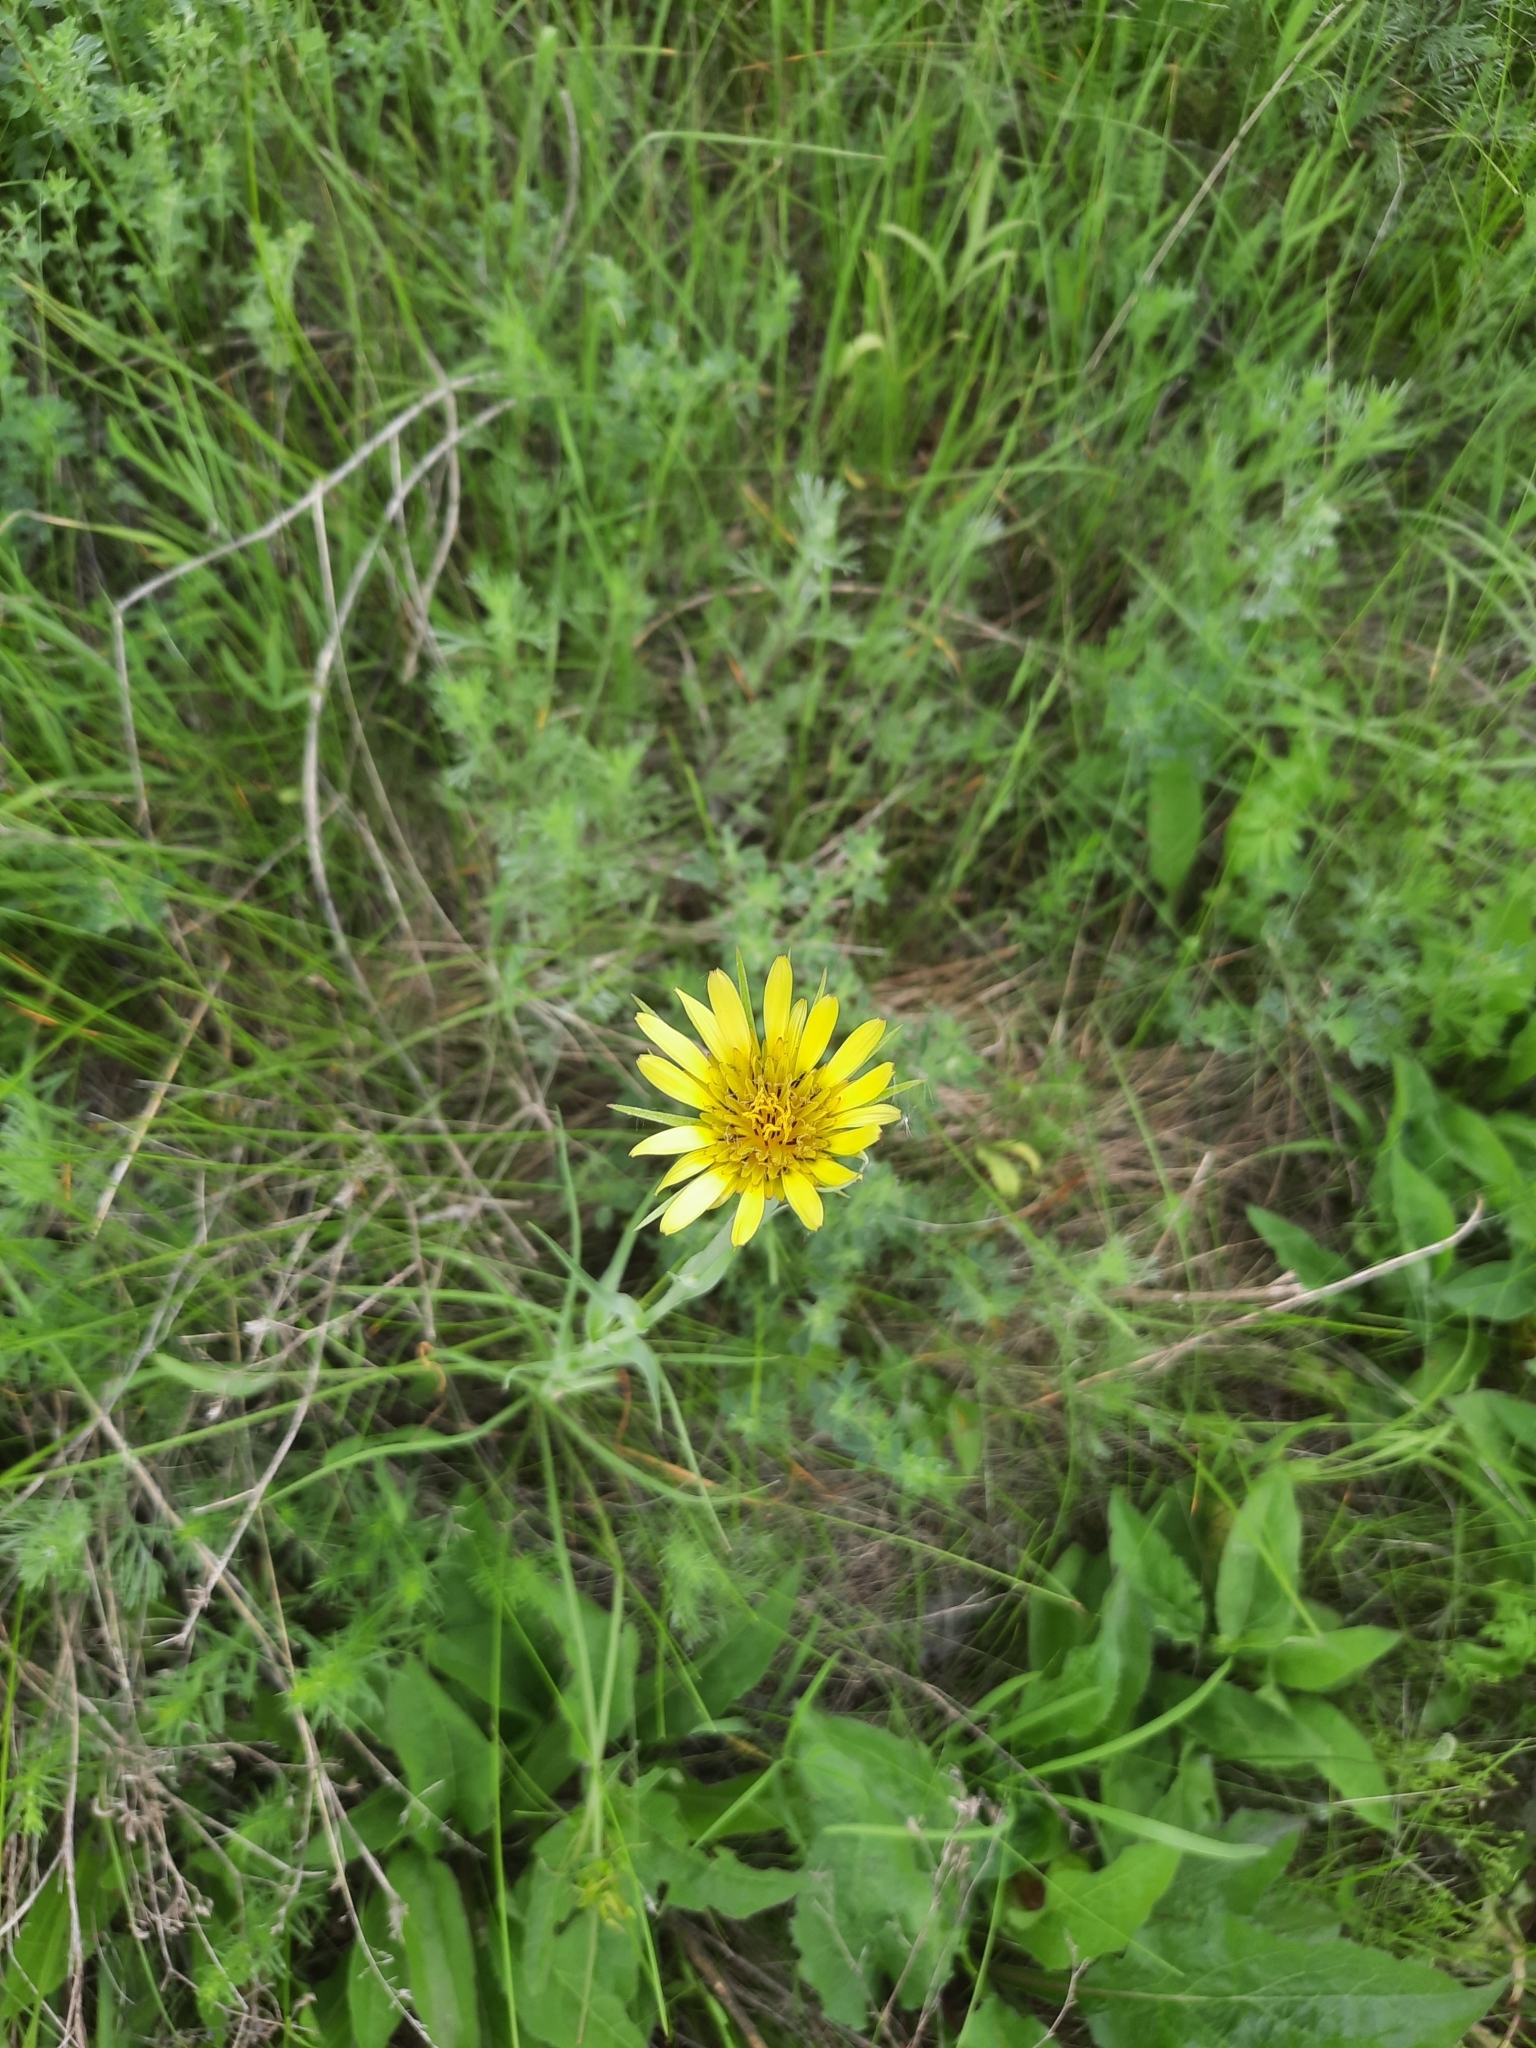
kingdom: Plantae
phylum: Tracheophyta
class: Magnoliopsida
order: Asterales
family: Asteraceae
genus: Tragopogon
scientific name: Tragopogon dubius
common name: Yellow salsify
